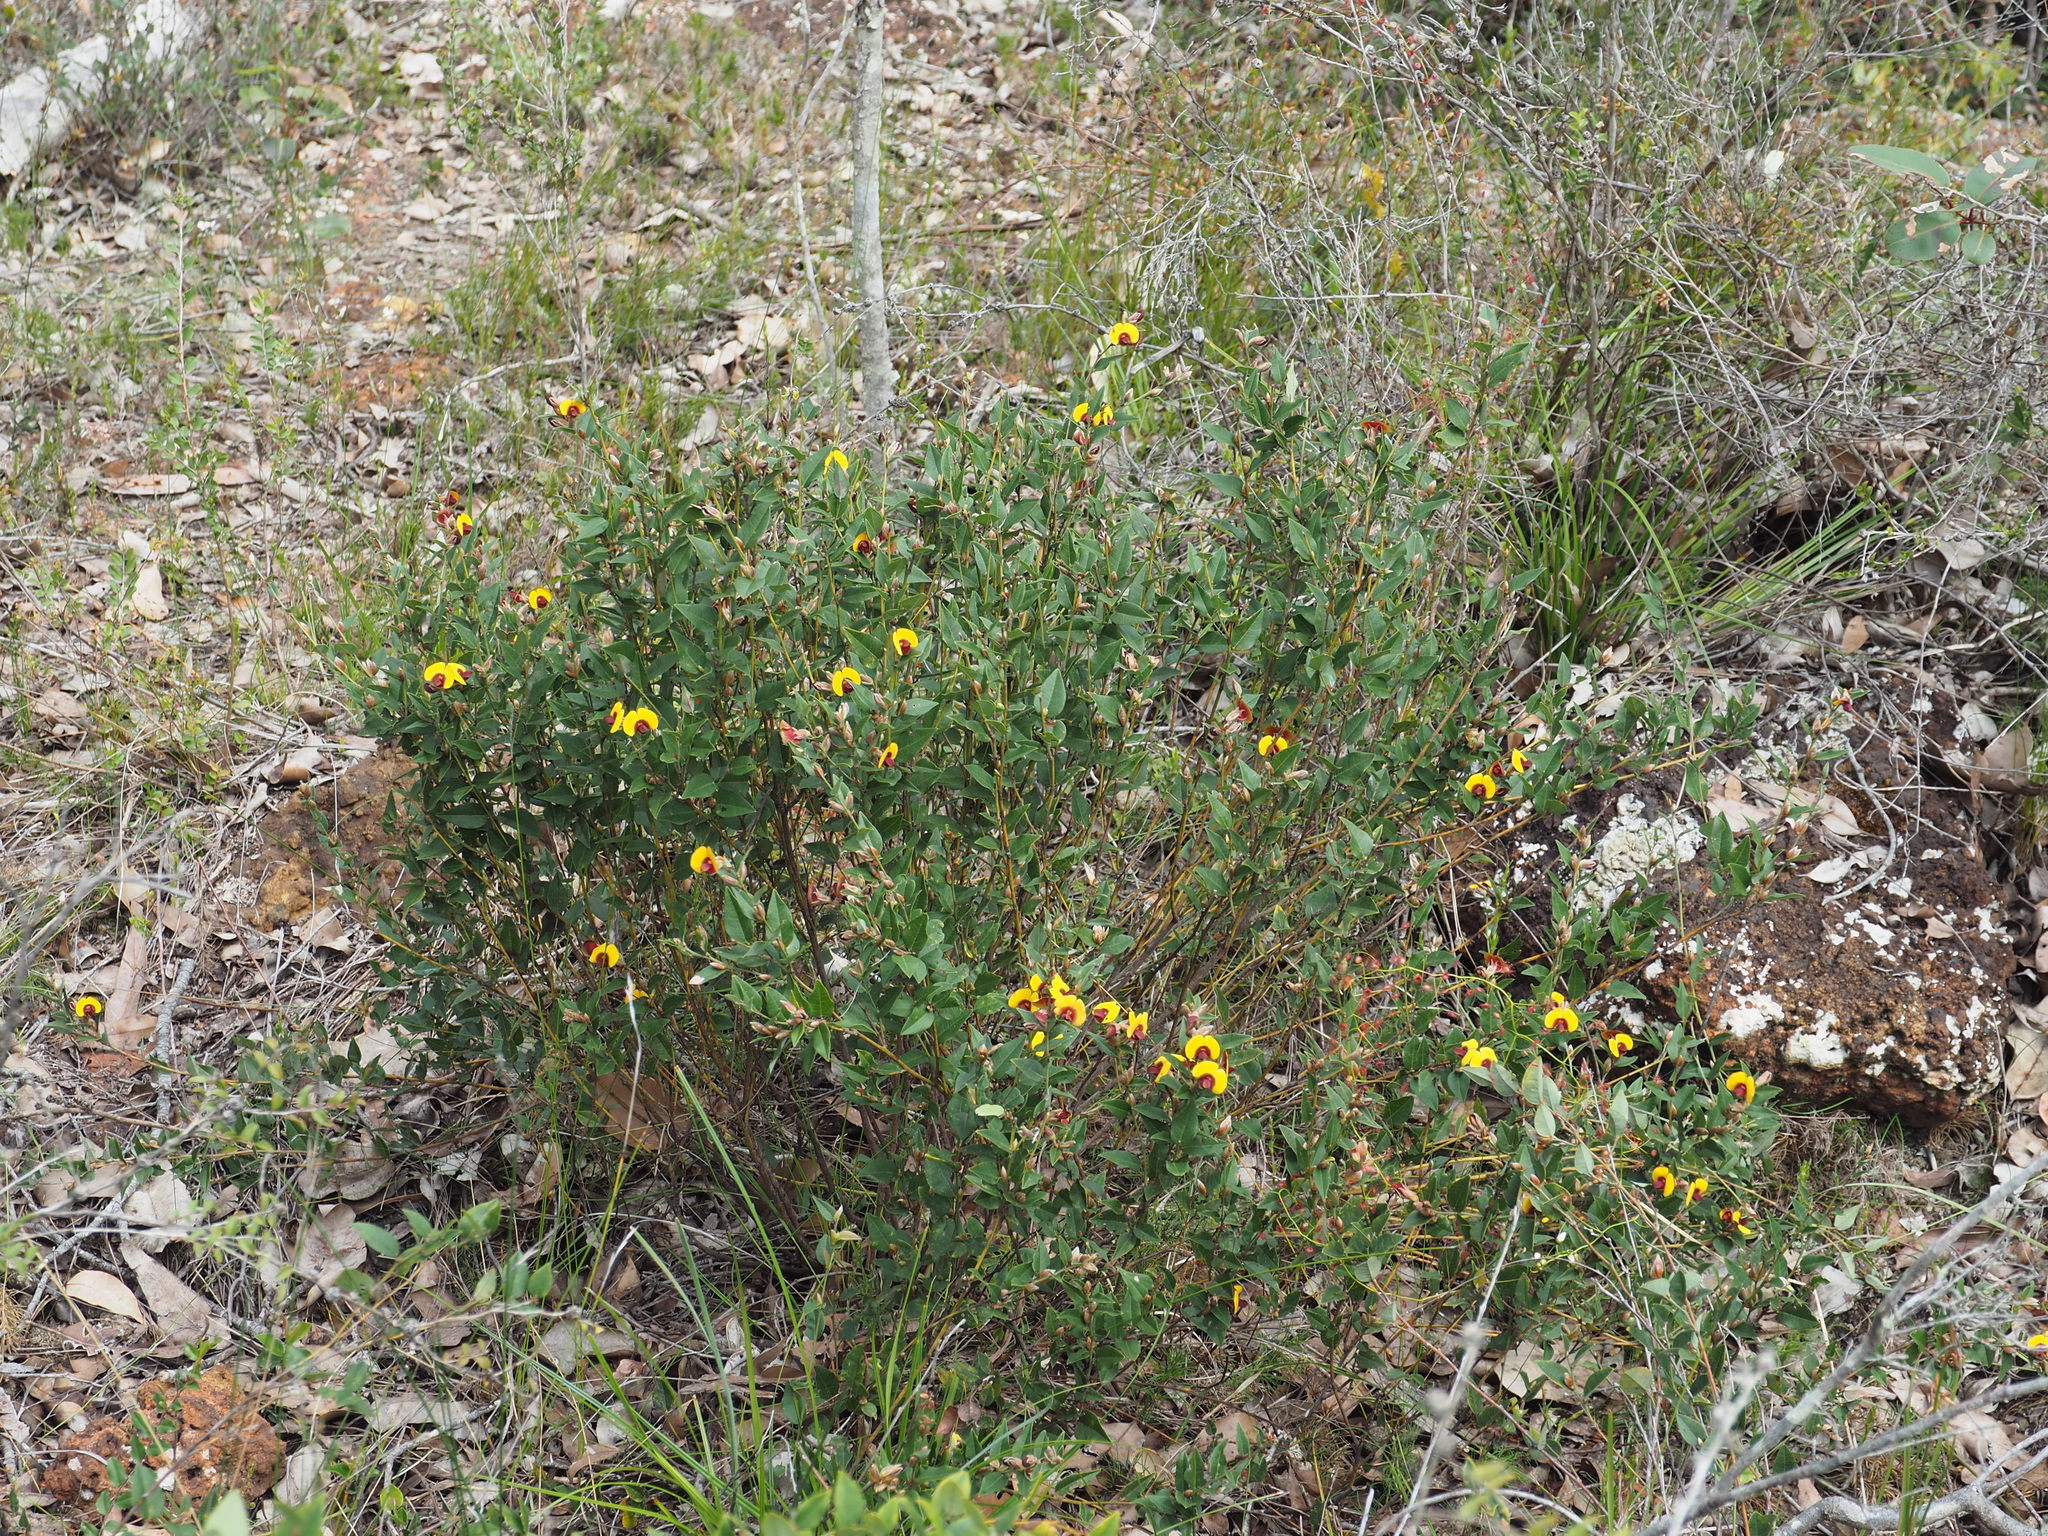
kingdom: Plantae
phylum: Tracheophyta
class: Magnoliopsida
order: Fabales
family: Fabaceae
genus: Bossiaea
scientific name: Bossiaea ornata
